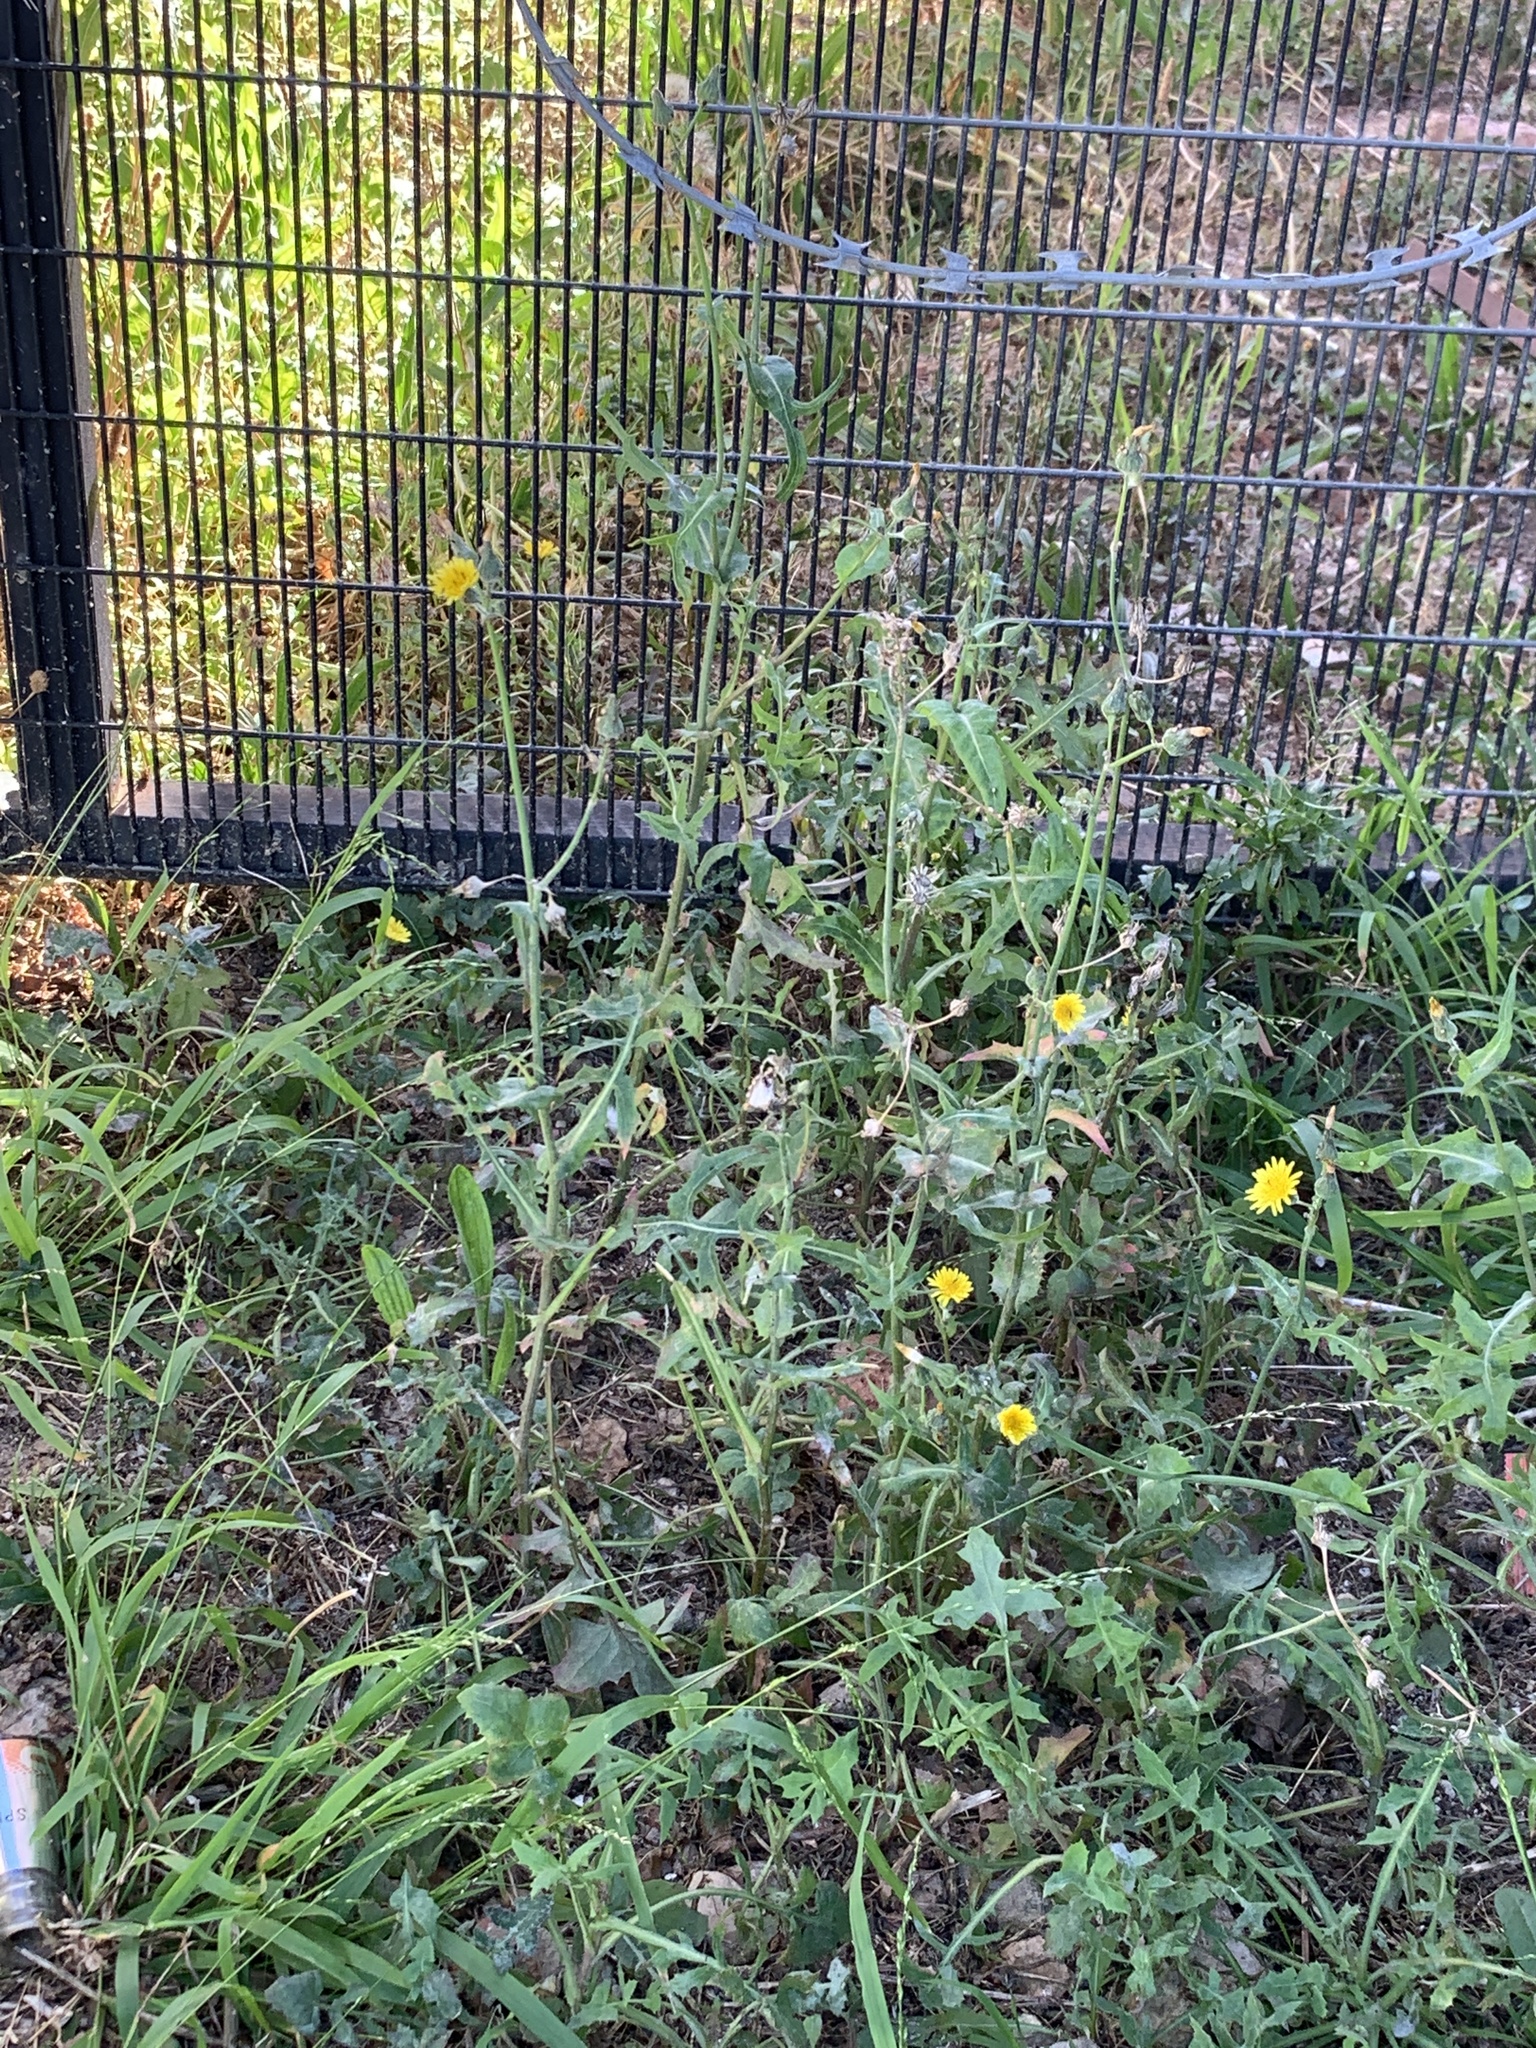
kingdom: Plantae
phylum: Tracheophyta
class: Magnoliopsida
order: Asterales
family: Asteraceae
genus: Sonchus
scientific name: Sonchus oleraceus
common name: Common sowthistle
